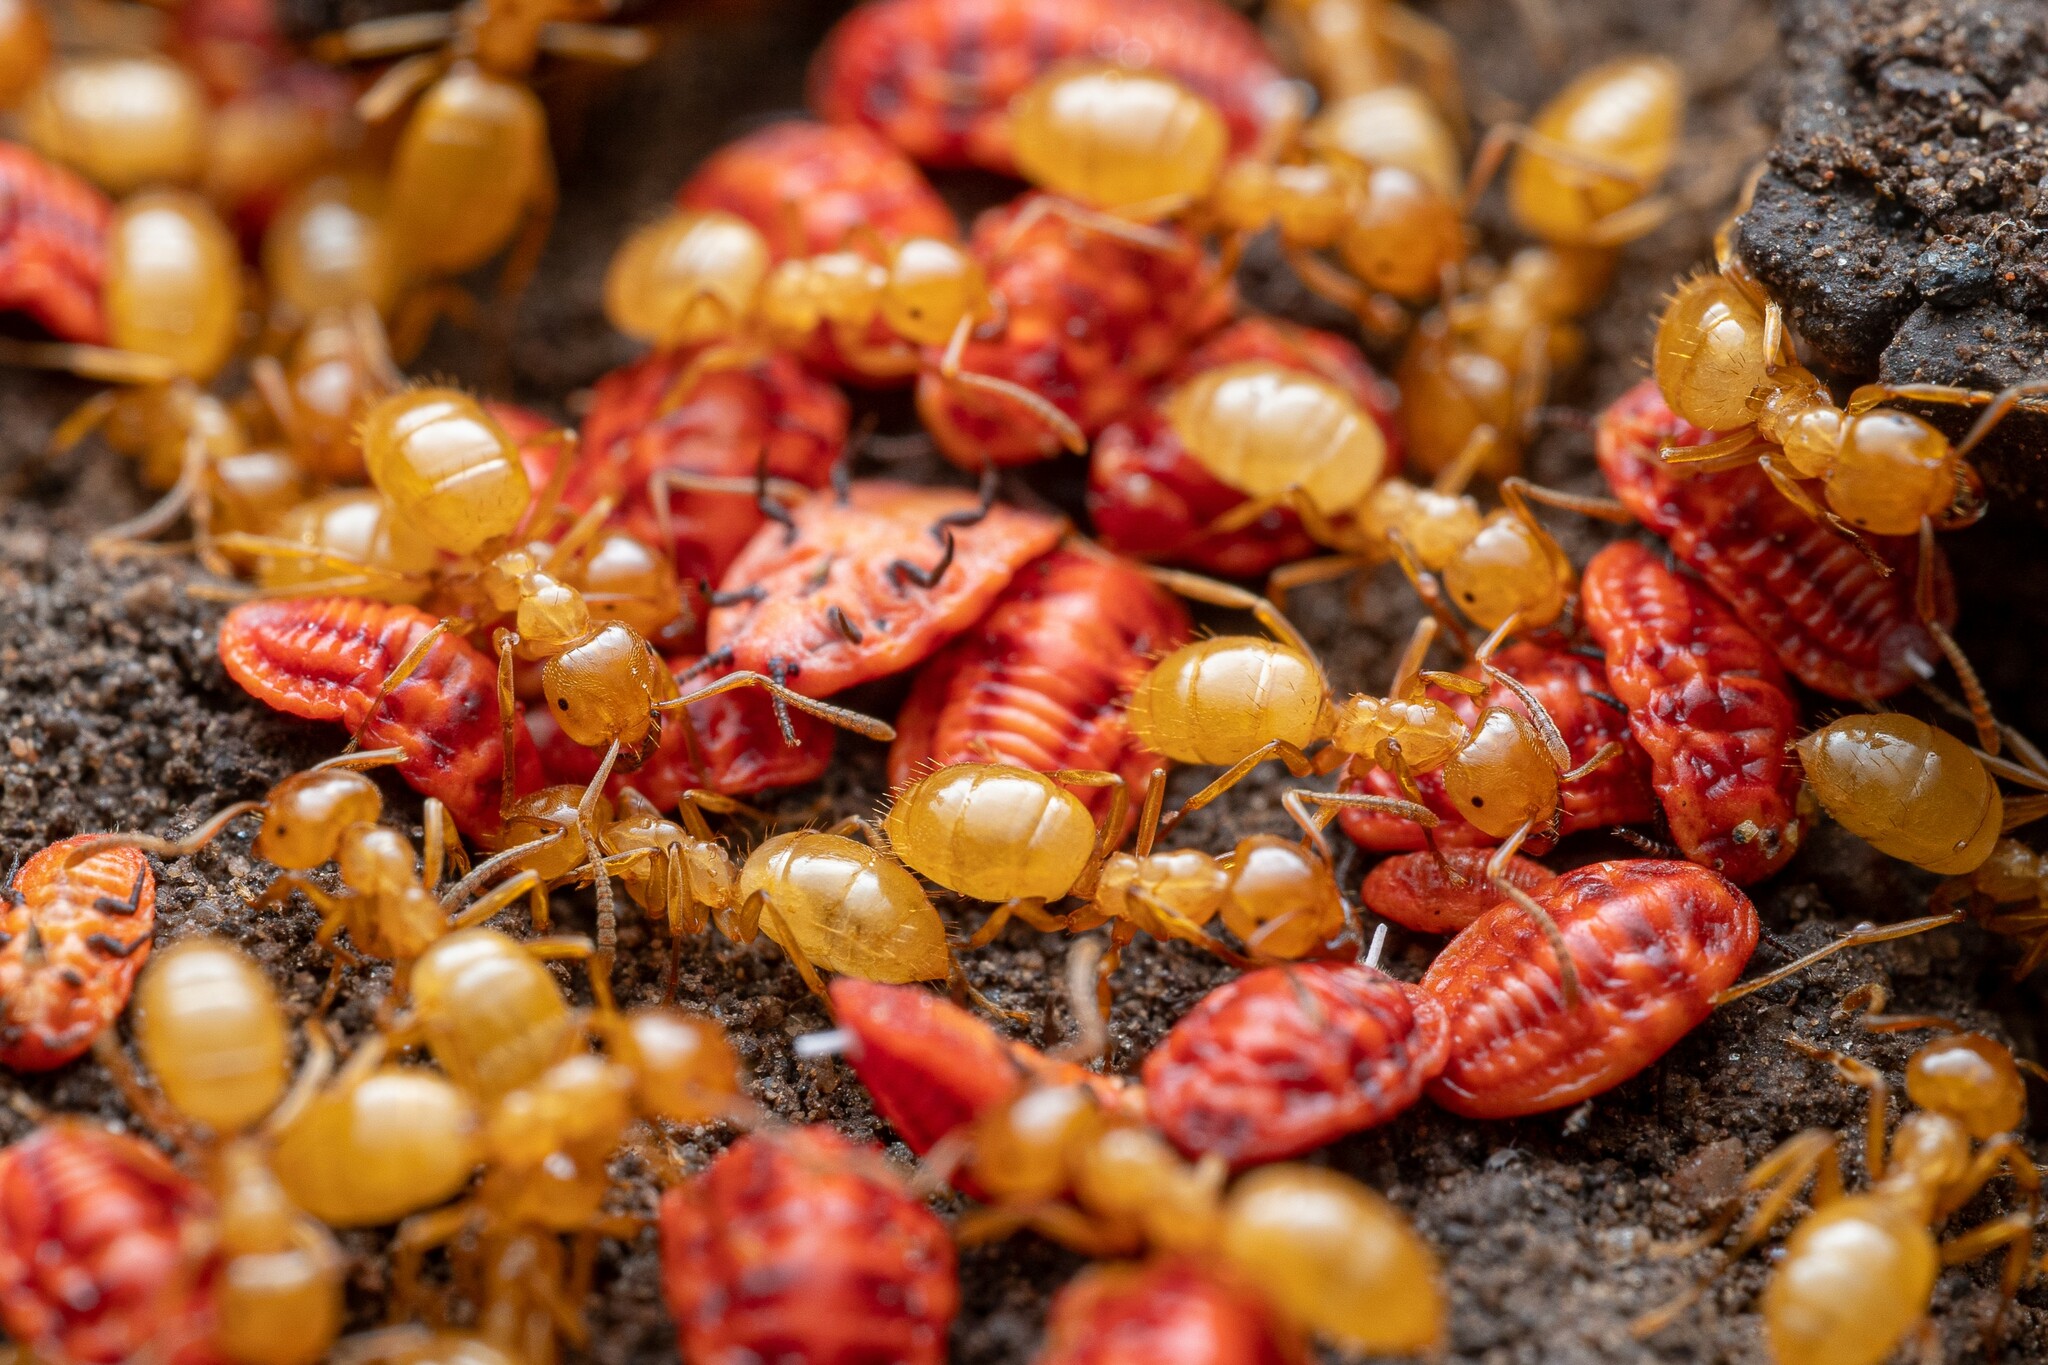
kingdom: Animalia
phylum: Arthropoda
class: Insecta
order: Hymenoptera
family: Formicidae
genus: Lasius
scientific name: Lasius arizonicus
